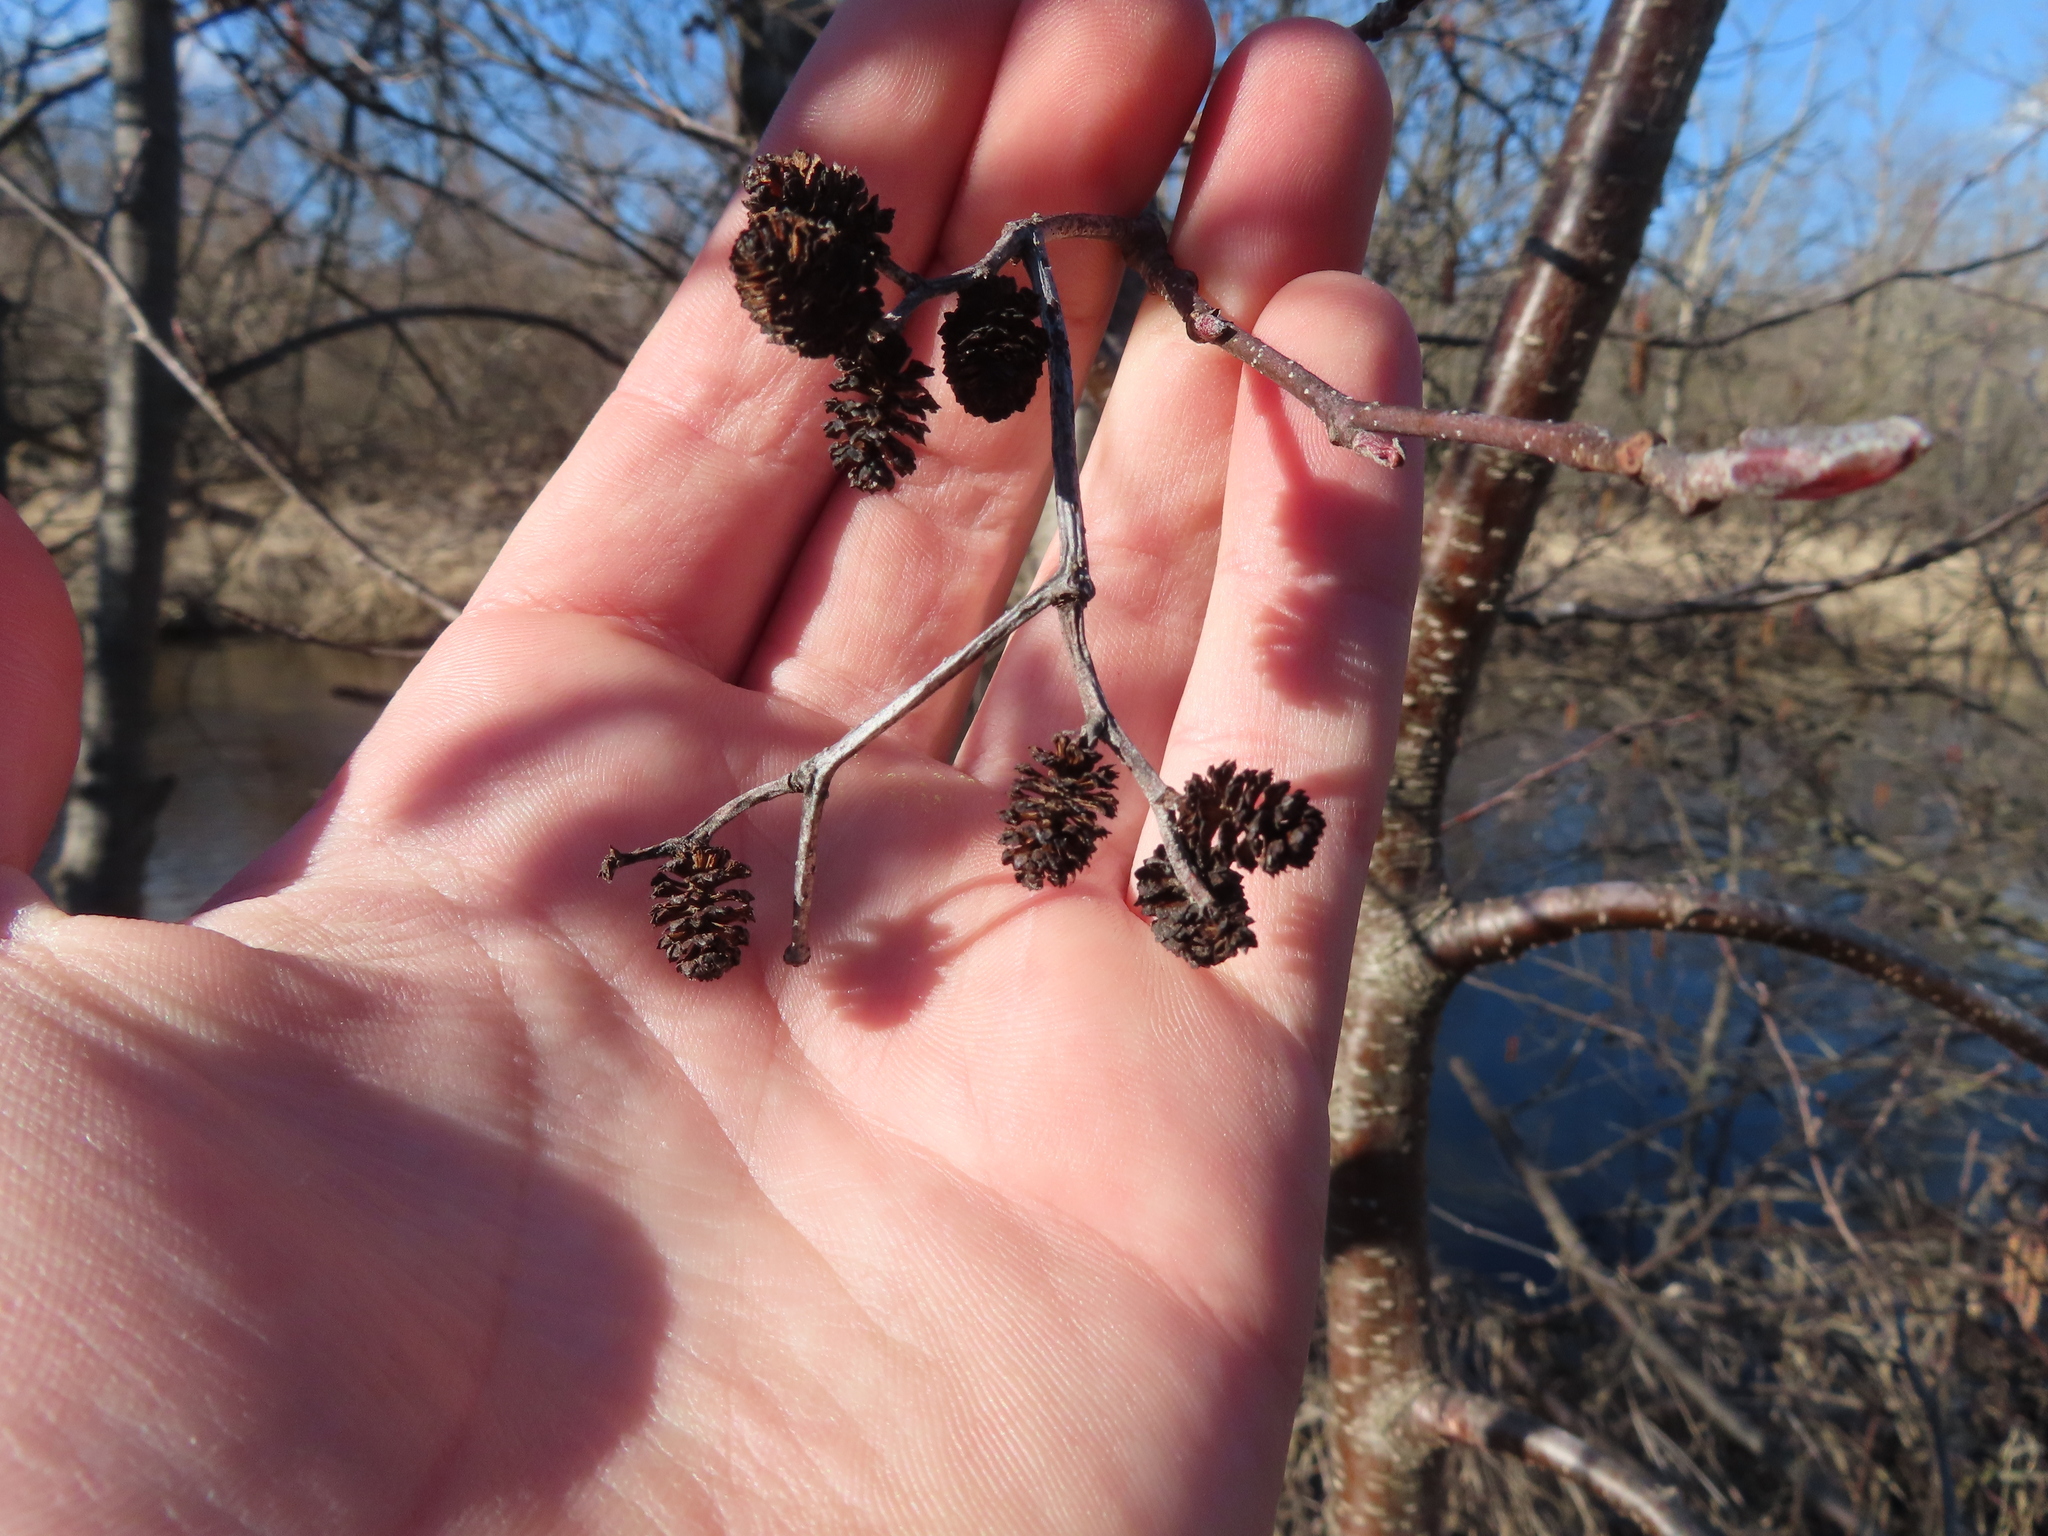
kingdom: Fungi
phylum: Ascomycota
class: Taphrinomycetes
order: Taphrinales
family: Taphrinaceae
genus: Taphrina
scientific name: Taphrina robinsoniana
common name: Eastern american alder tongue gall fungus
